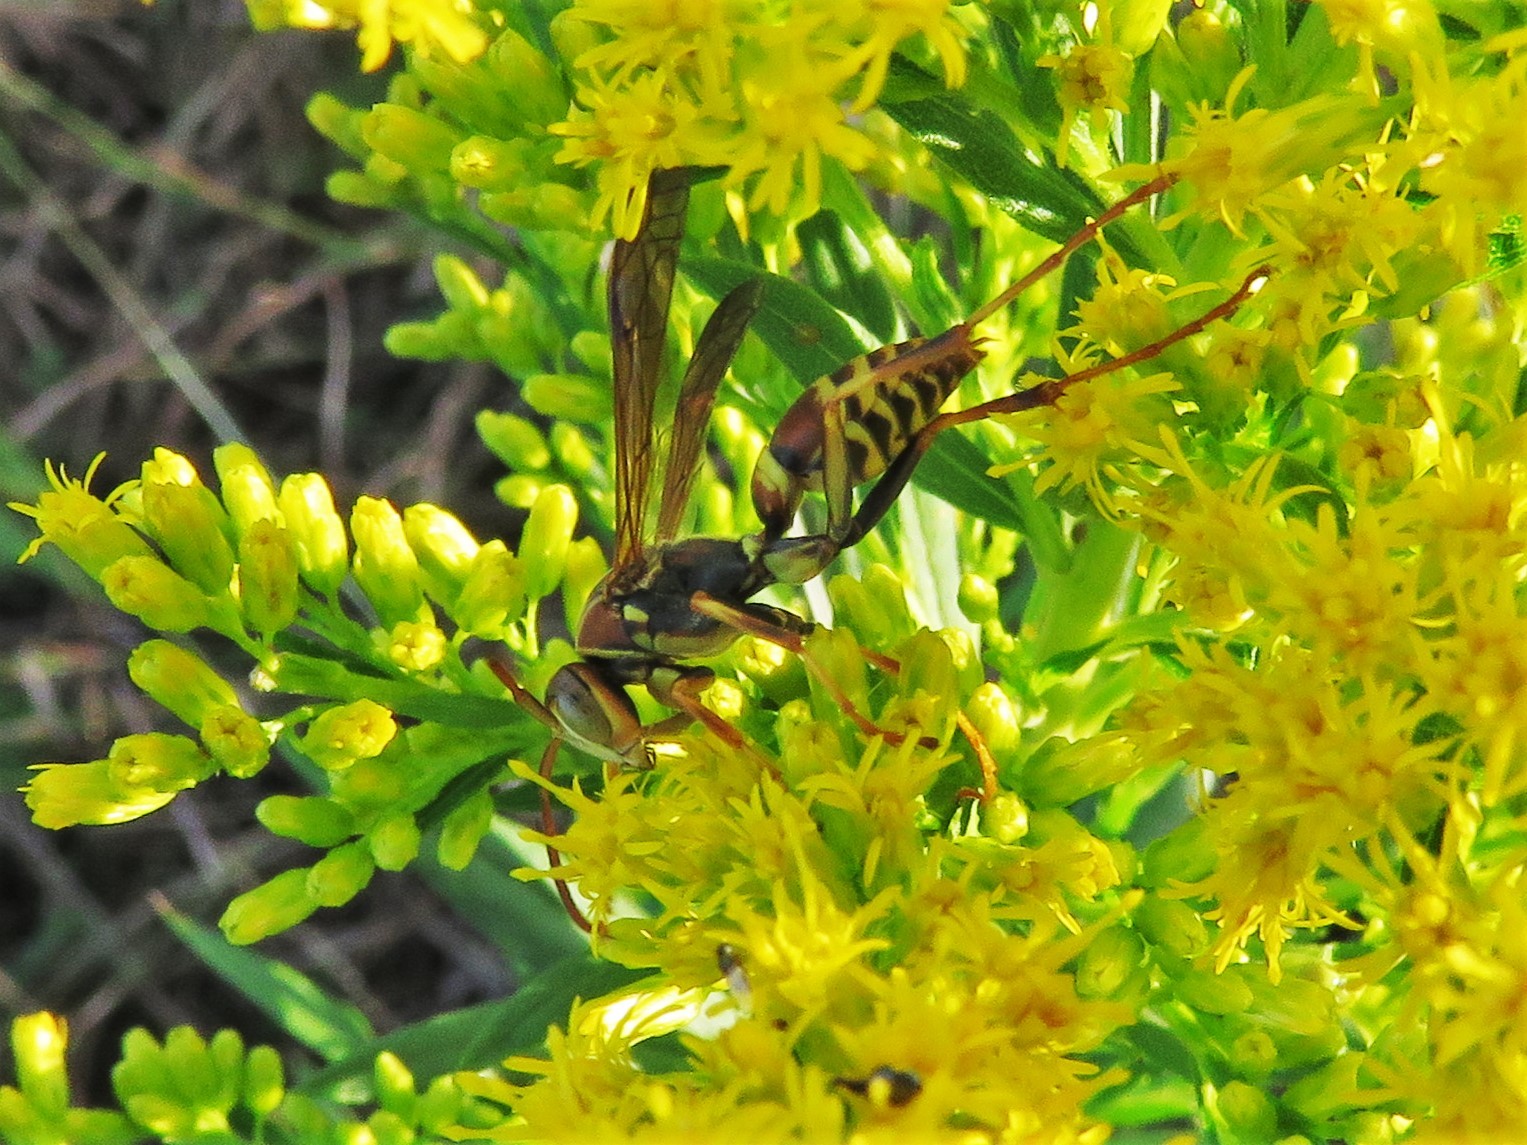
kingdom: Animalia
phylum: Arthropoda
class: Insecta
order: Hymenoptera
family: Eumenidae
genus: Polistes
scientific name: Polistes dorsalis
